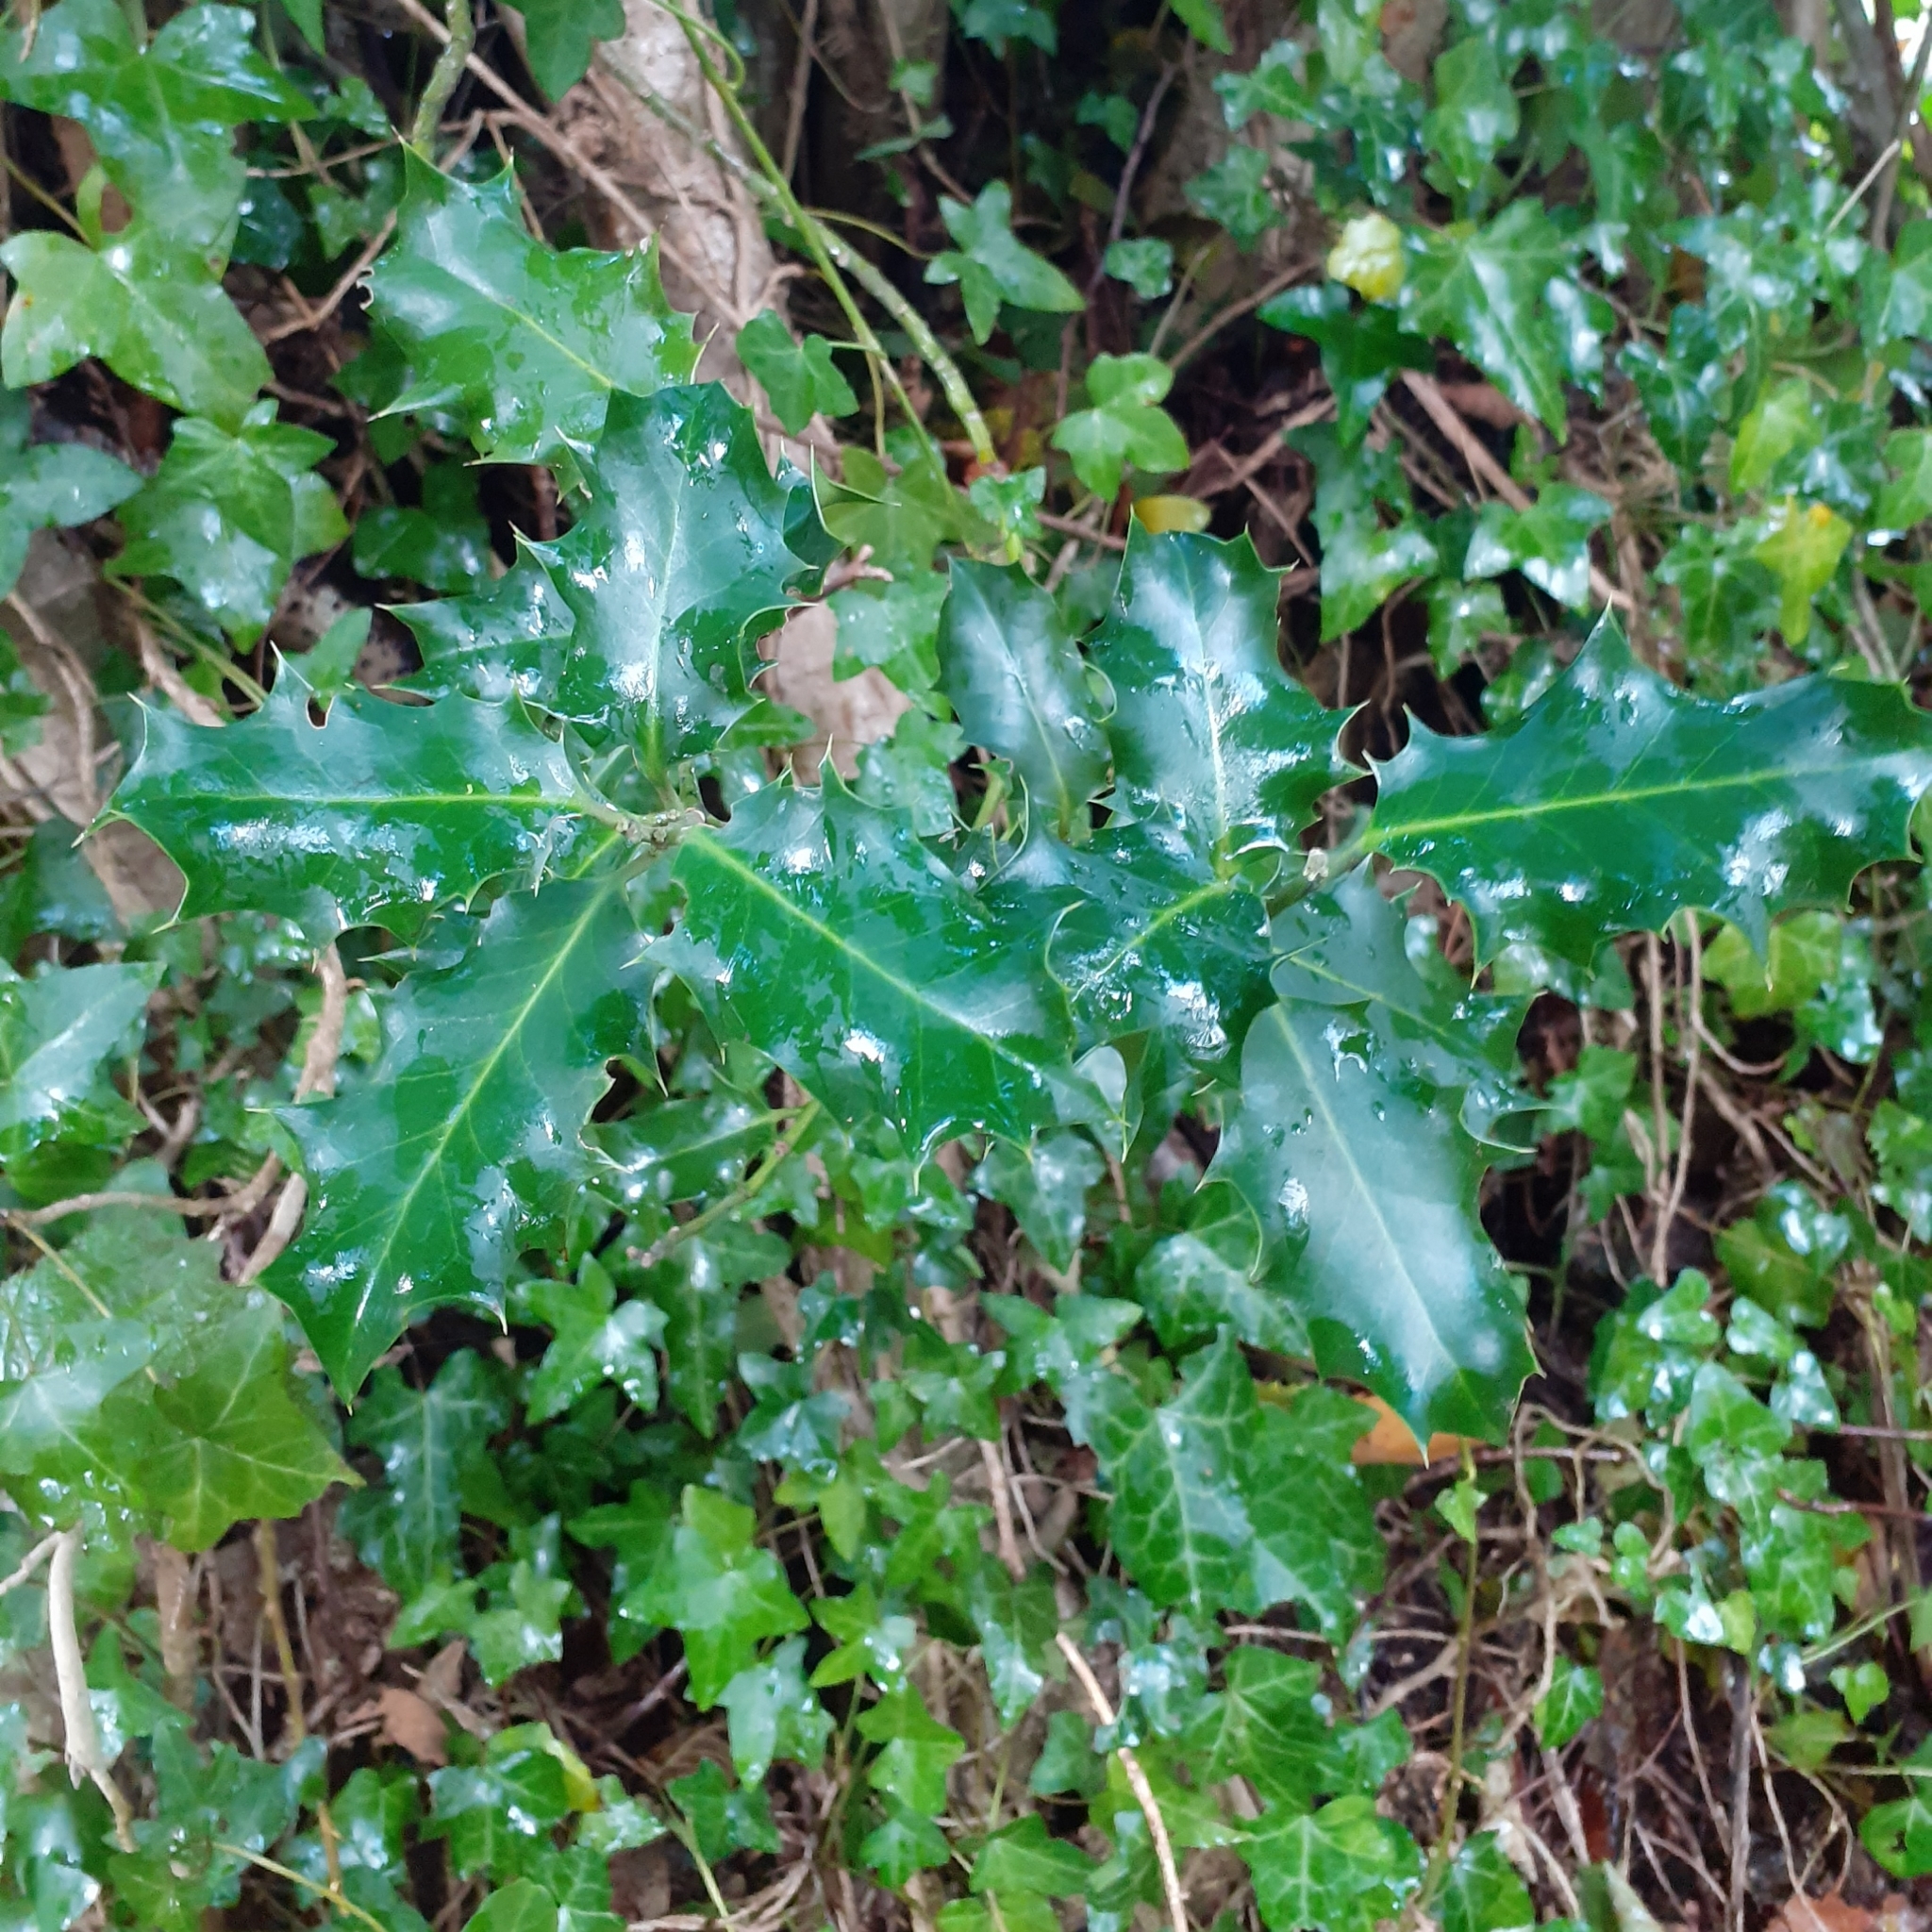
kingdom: Plantae
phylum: Tracheophyta
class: Magnoliopsida
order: Aquifoliales
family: Aquifoliaceae
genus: Ilex
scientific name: Ilex aquifolium
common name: English holly
